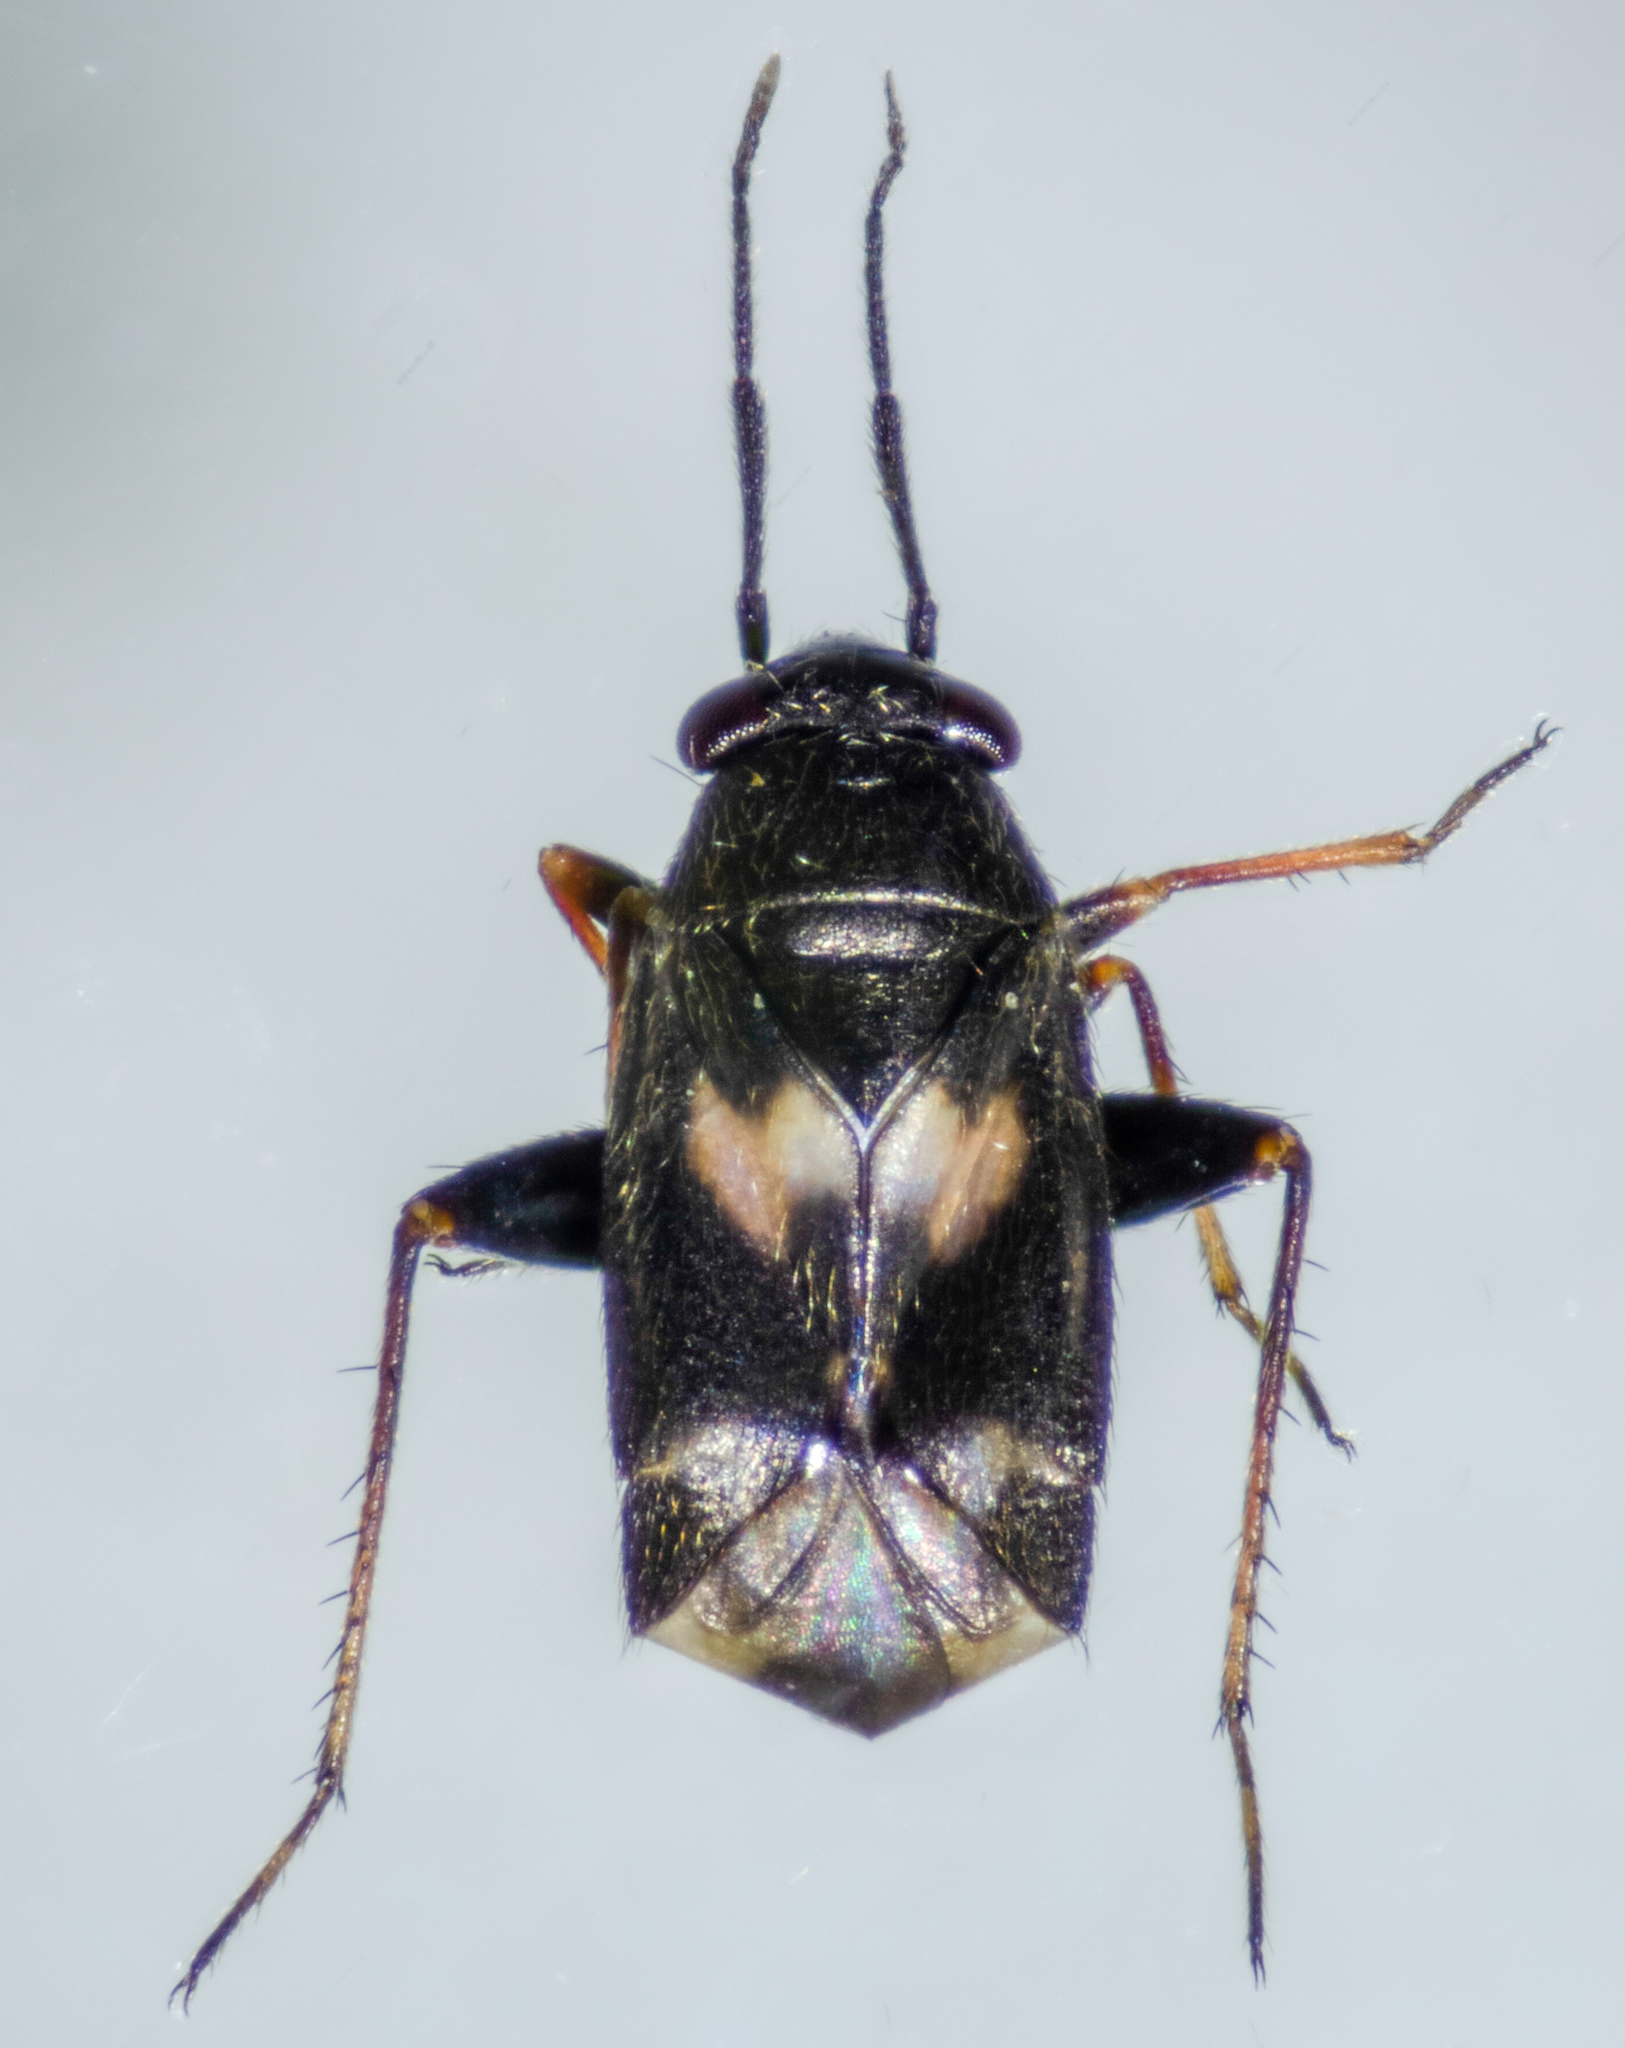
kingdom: Animalia
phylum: Arthropoda
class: Insecta
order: Hemiptera
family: Miridae
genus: Spanagonicus
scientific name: Spanagonicus albofasciatus
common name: Whitemarked fleahopper
